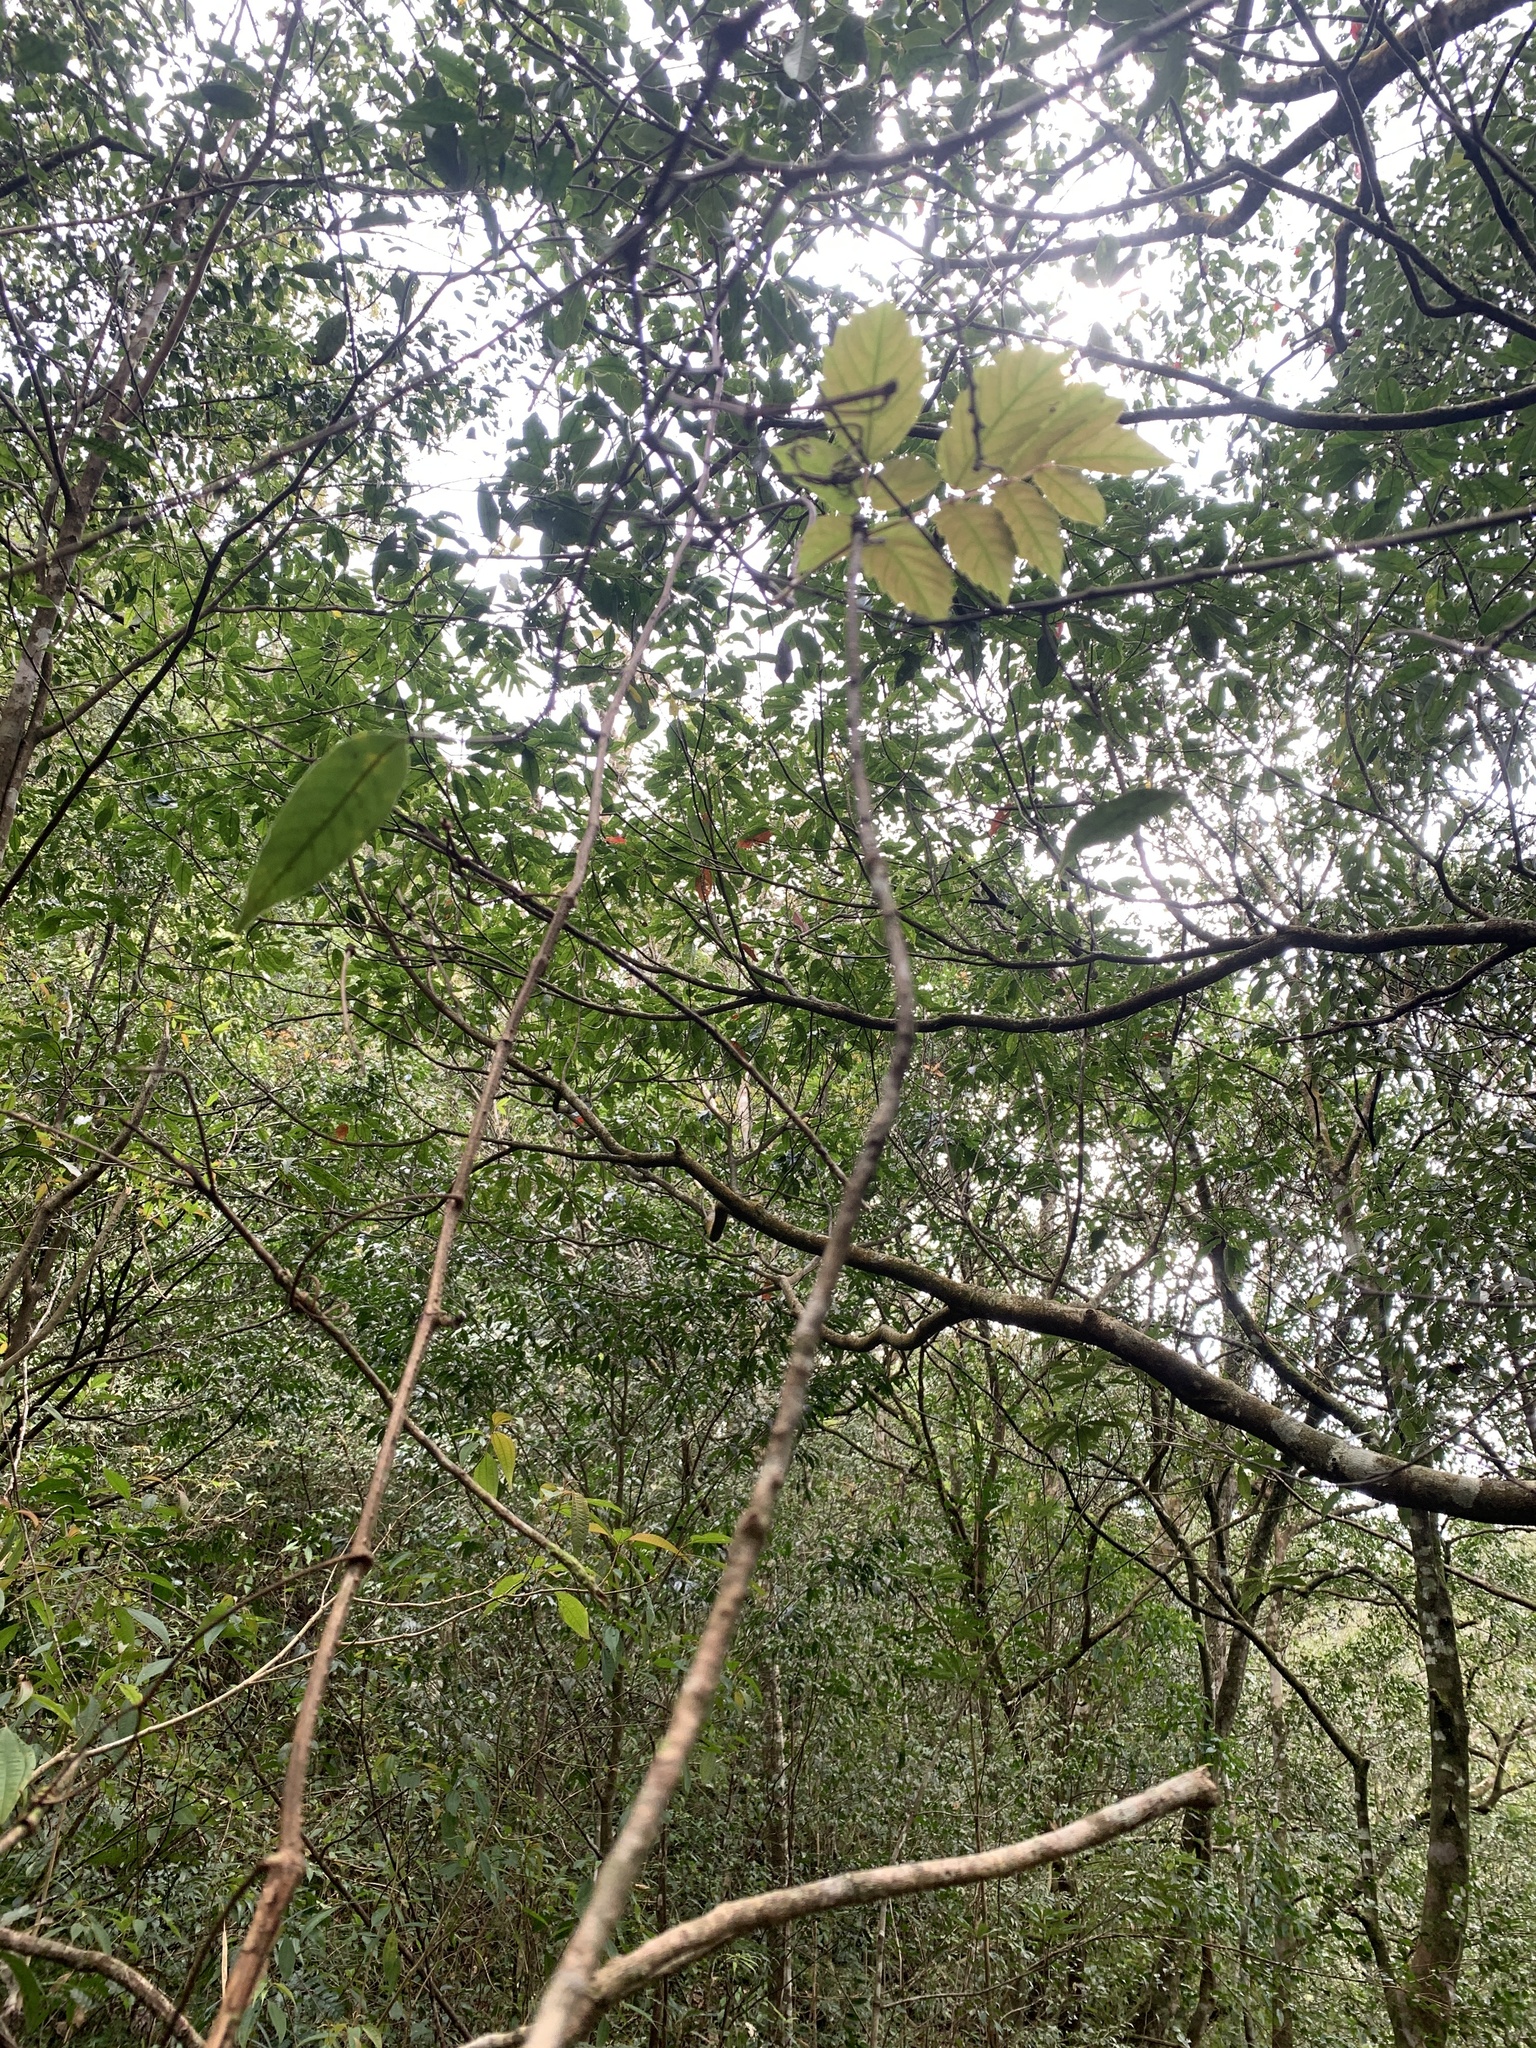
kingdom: Plantae
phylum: Tracheophyta
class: Magnoliopsida
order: Vitales
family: Vitaceae
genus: Nekemias
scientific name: Nekemias cantoniensis
